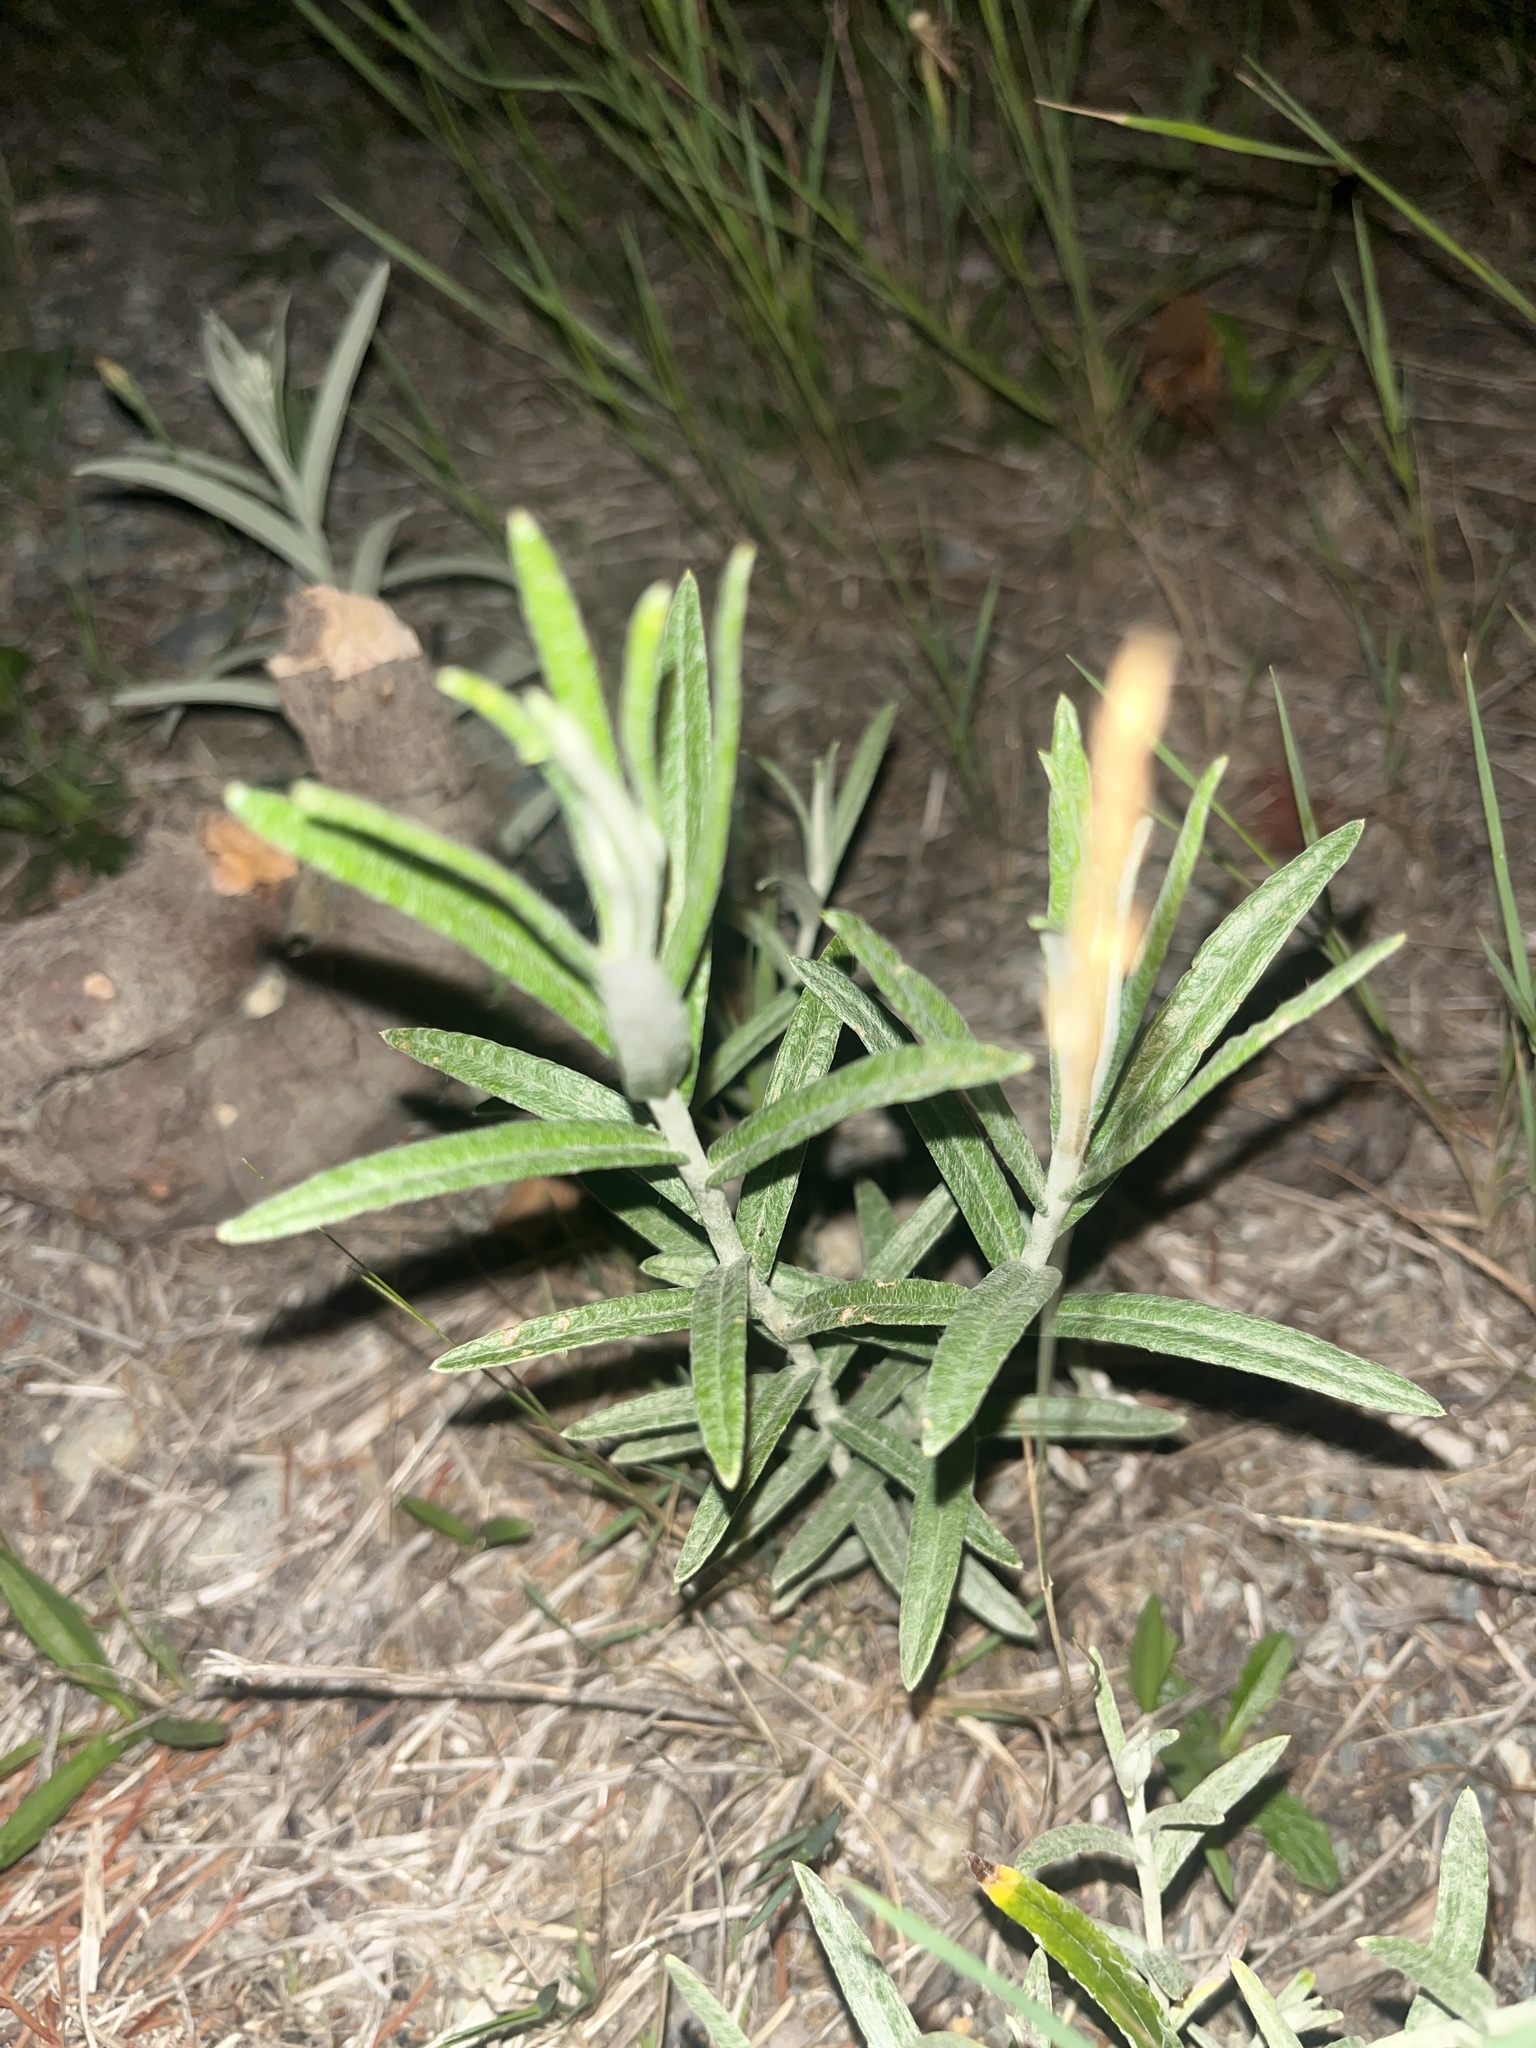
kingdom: Plantae
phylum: Tracheophyta
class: Magnoliopsida
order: Asterales
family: Asteraceae
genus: Anaphalis
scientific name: Anaphalis margaritacea
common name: Pearly everlasting
